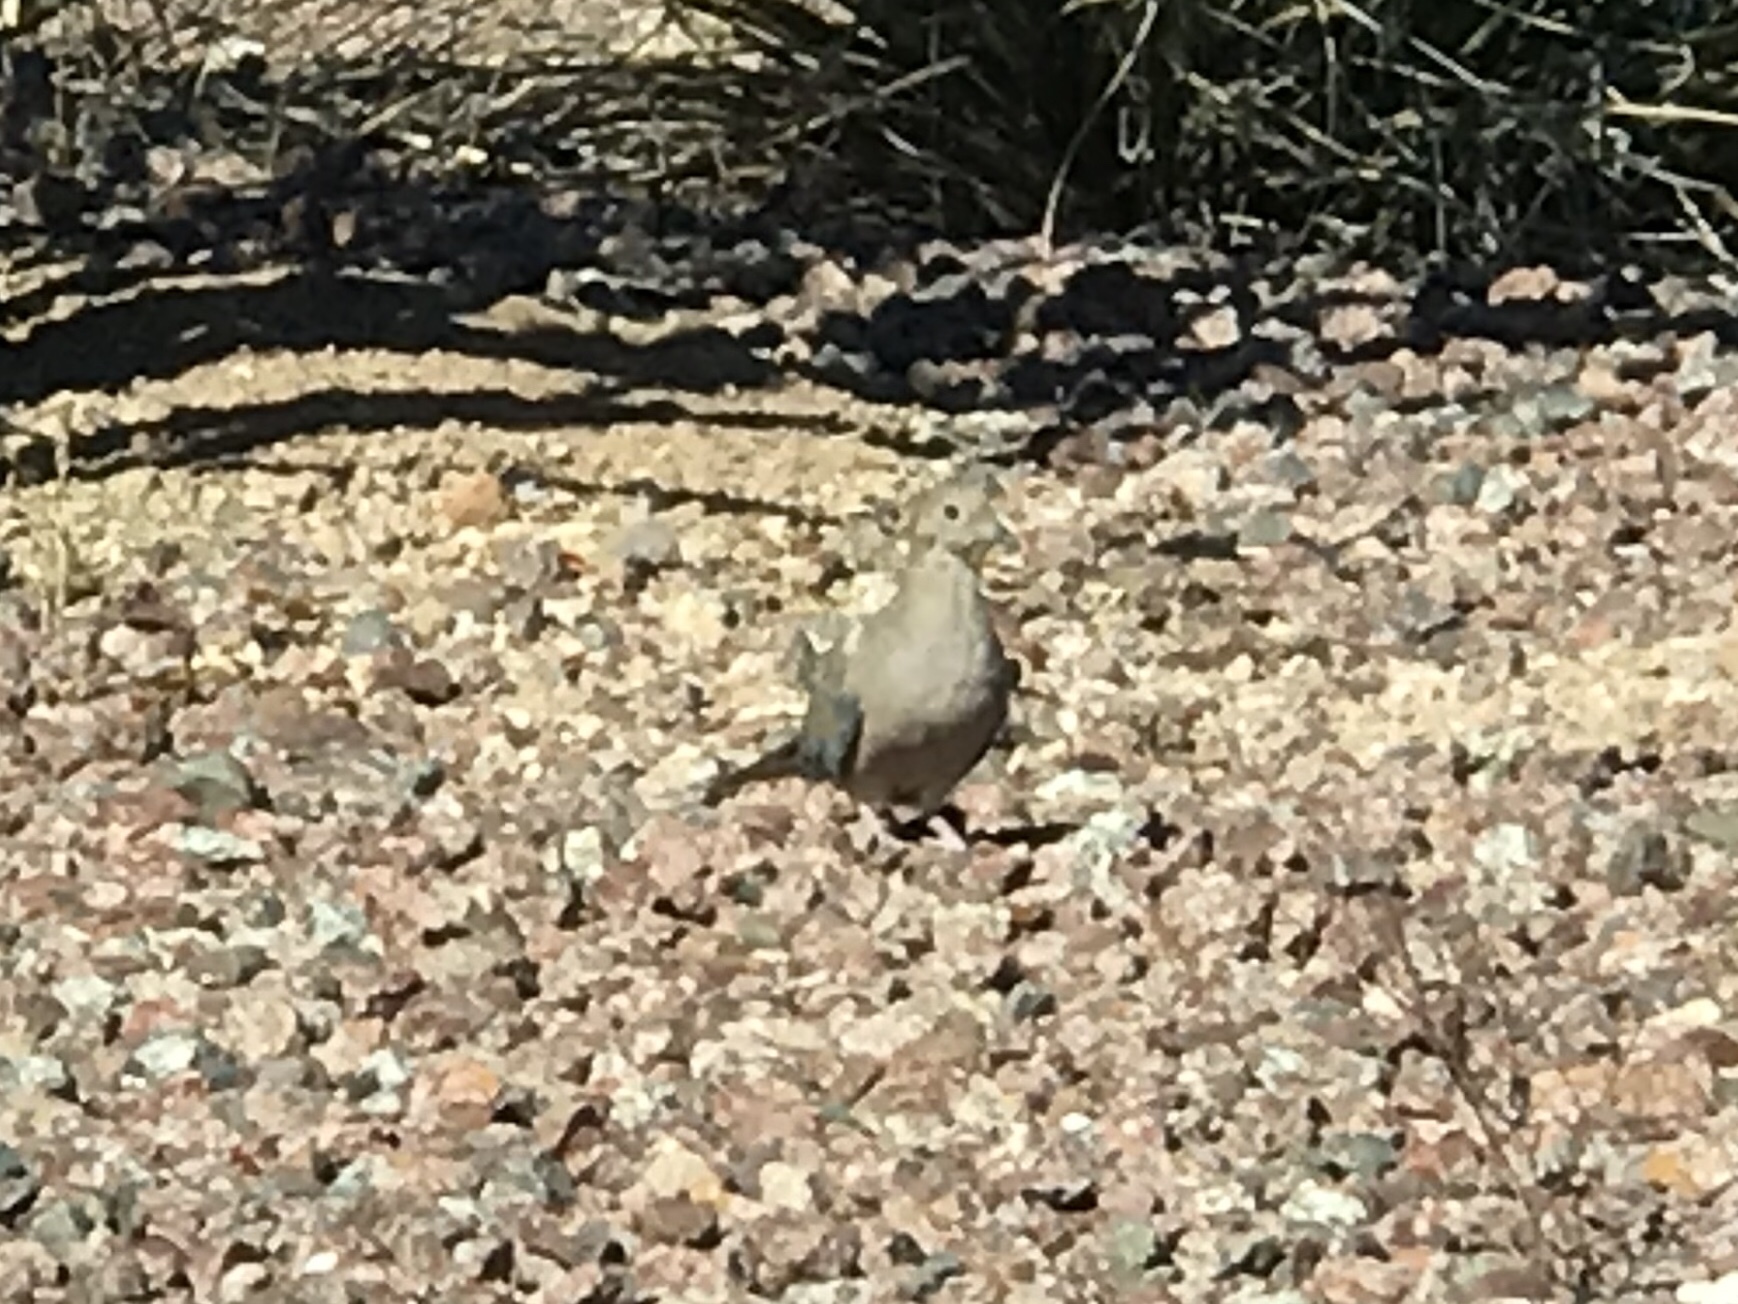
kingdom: Animalia
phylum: Chordata
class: Aves
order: Columbiformes
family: Columbidae
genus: Zenaida
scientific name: Zenaida macroura
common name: Mourning dove
